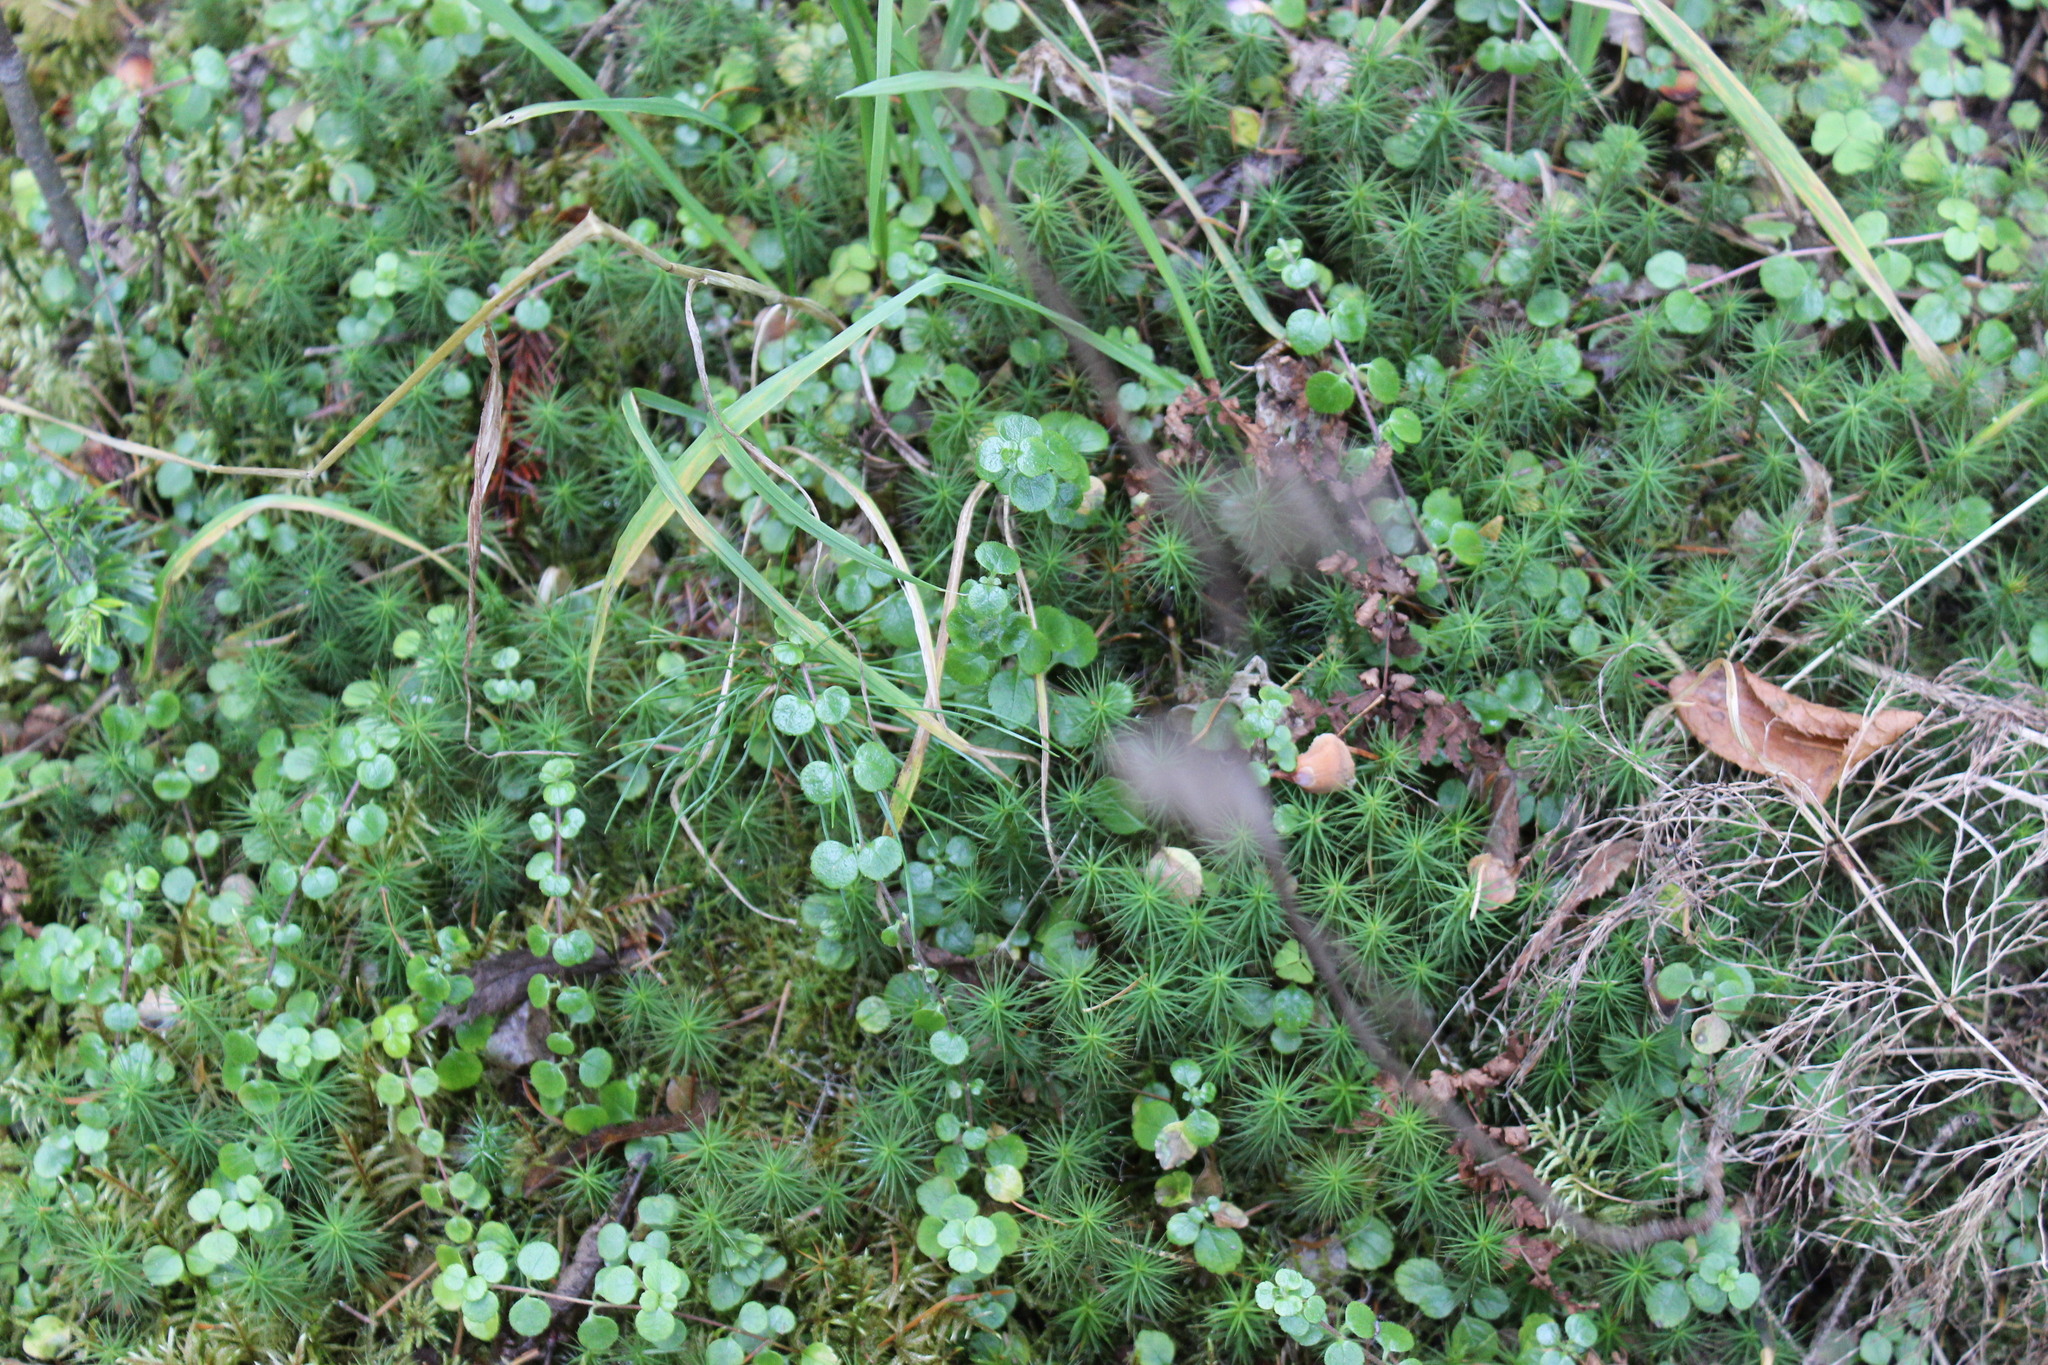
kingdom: Plantae
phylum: Tracheophyta
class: Magnoliopsida
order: Dipsacales
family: Caprifoliaceae
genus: Linnaea
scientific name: Linnaea borealis
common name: Twinflower
